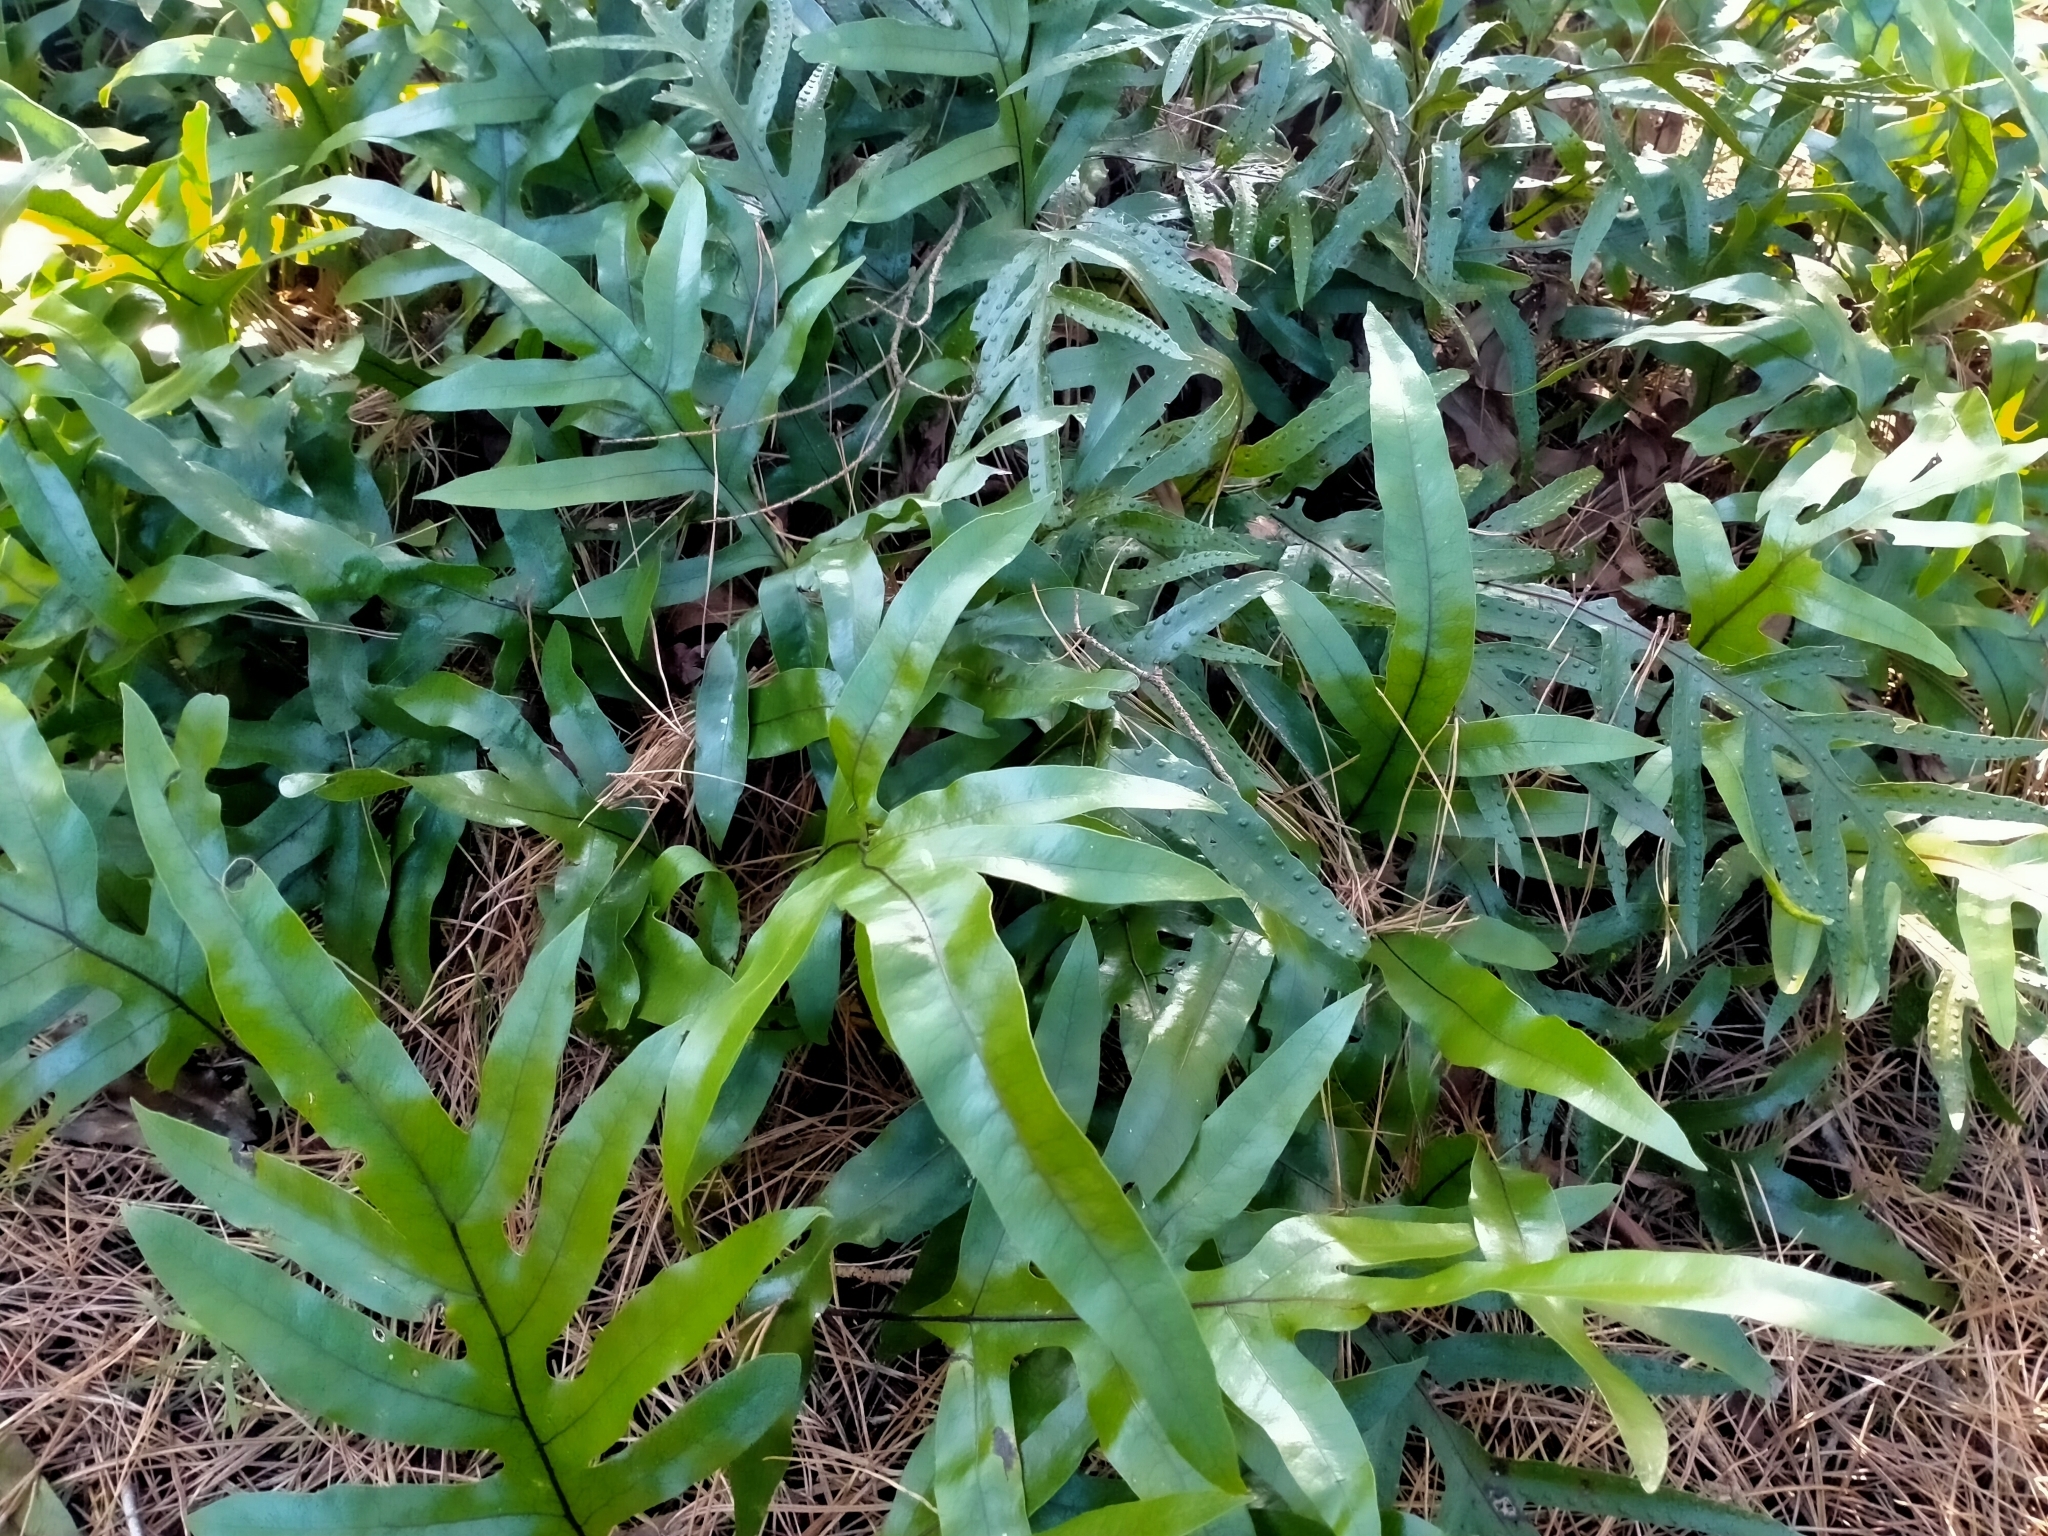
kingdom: Plantae
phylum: Tracheophyta
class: Polypodiopsida
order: Polypodiales
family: Polypodiaceae
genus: Lecanopteris
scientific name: Lecanopteris pustulata
